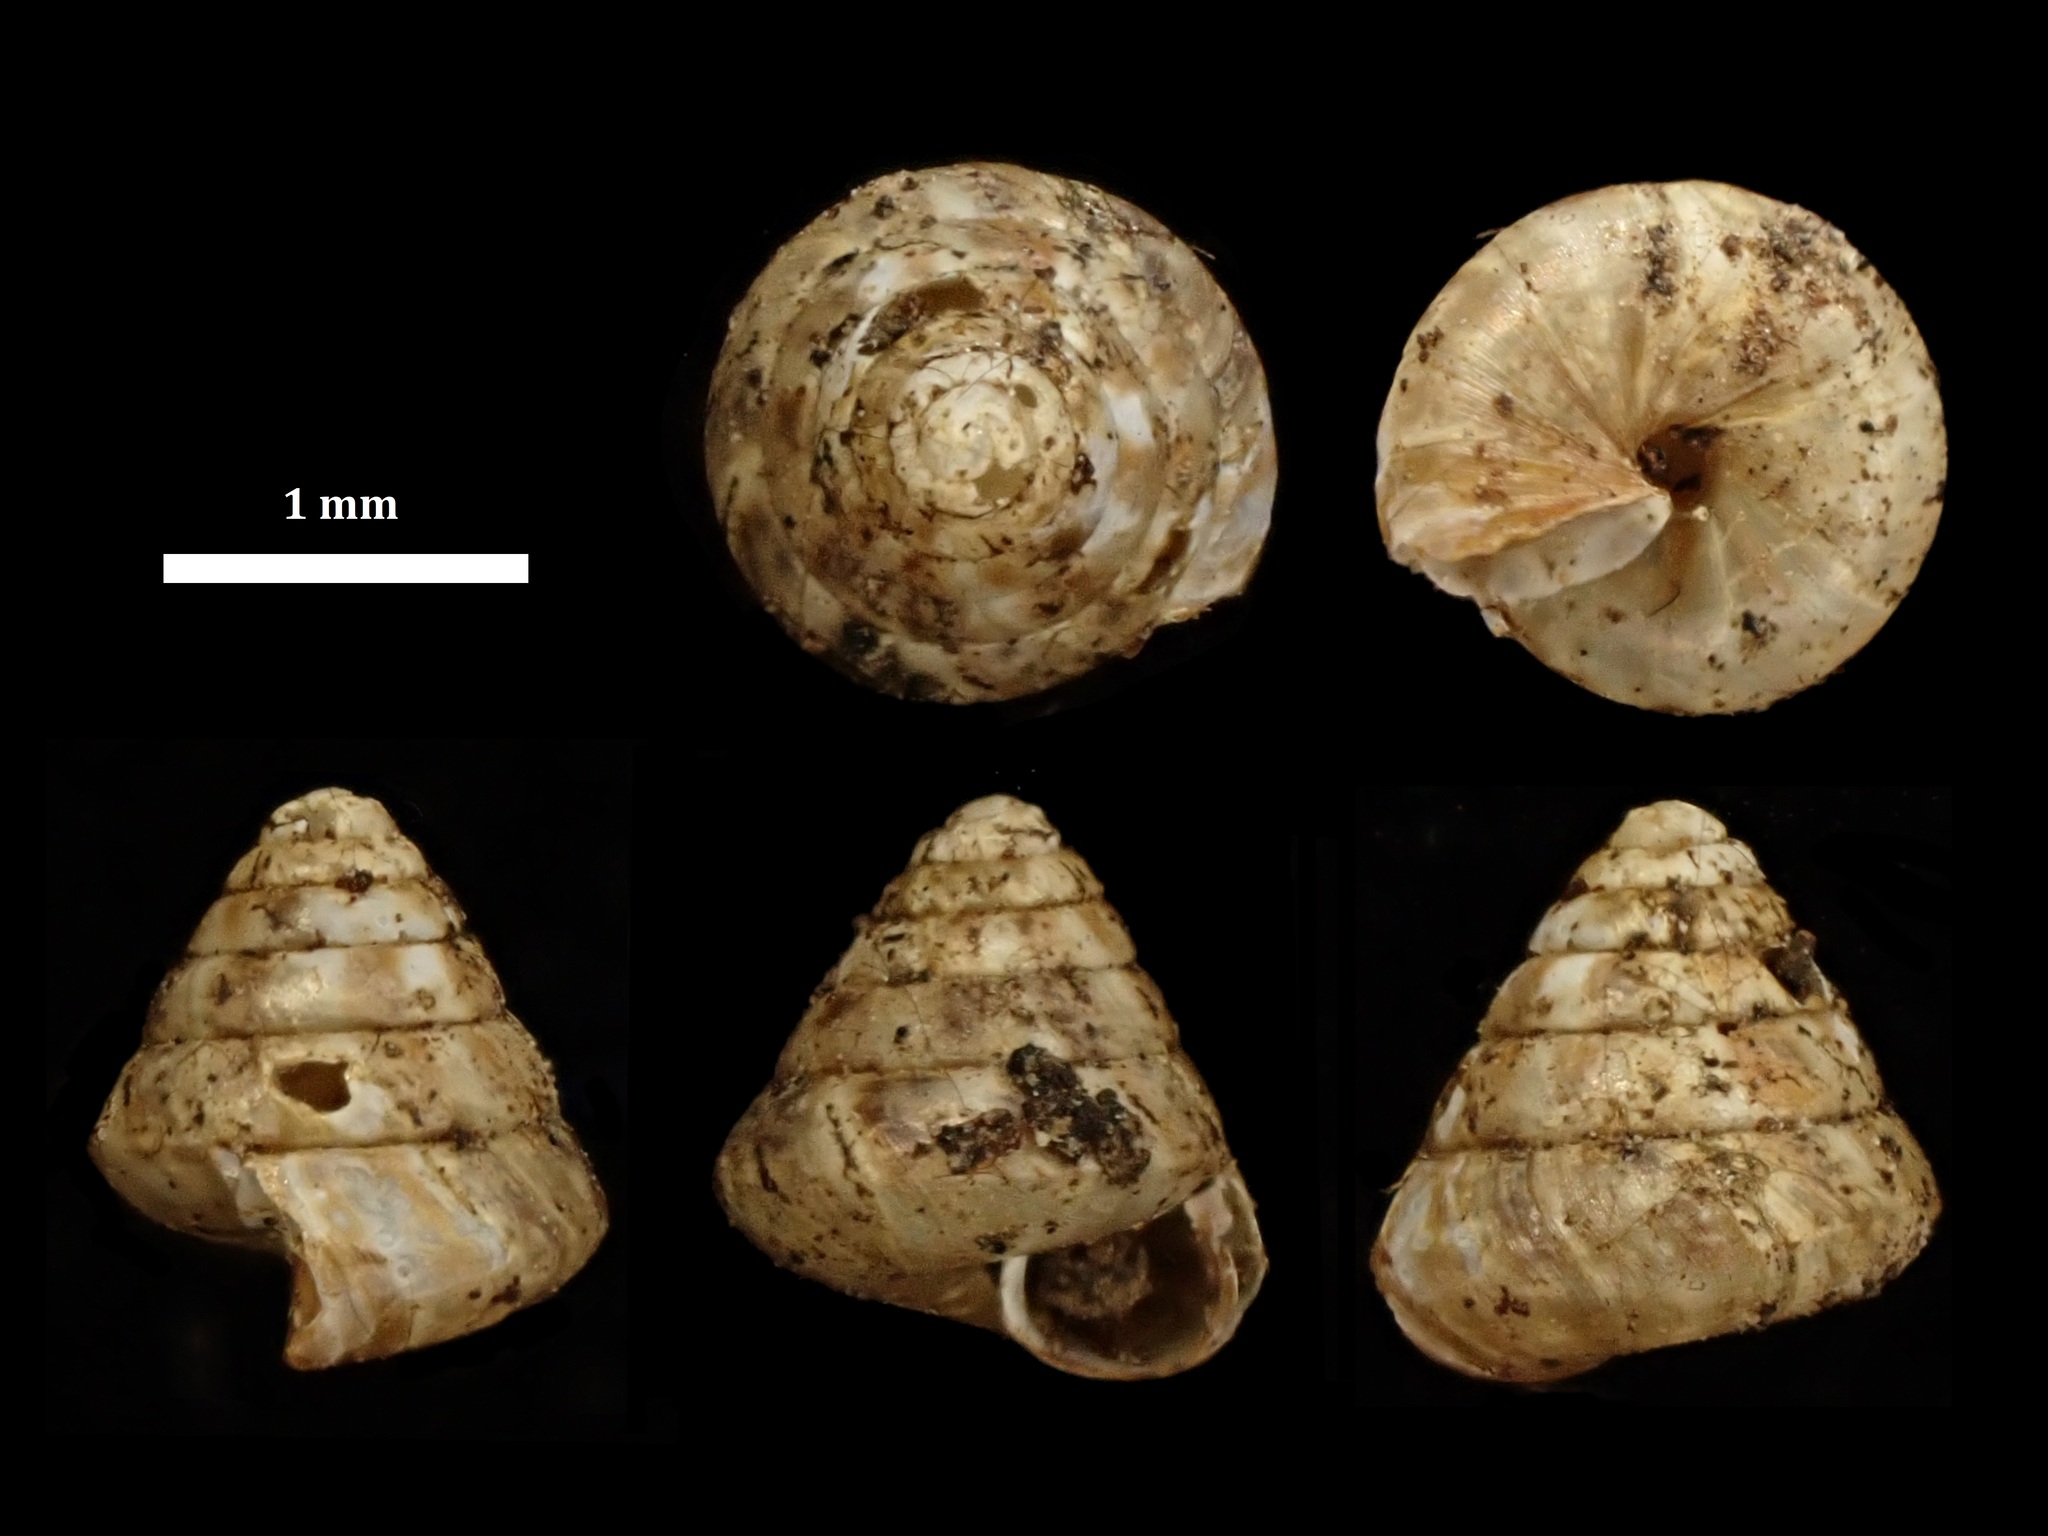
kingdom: Animalia
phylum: Mollusca
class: Gastropoda
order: Stylommatophora
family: Punctidae
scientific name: Punctidae
